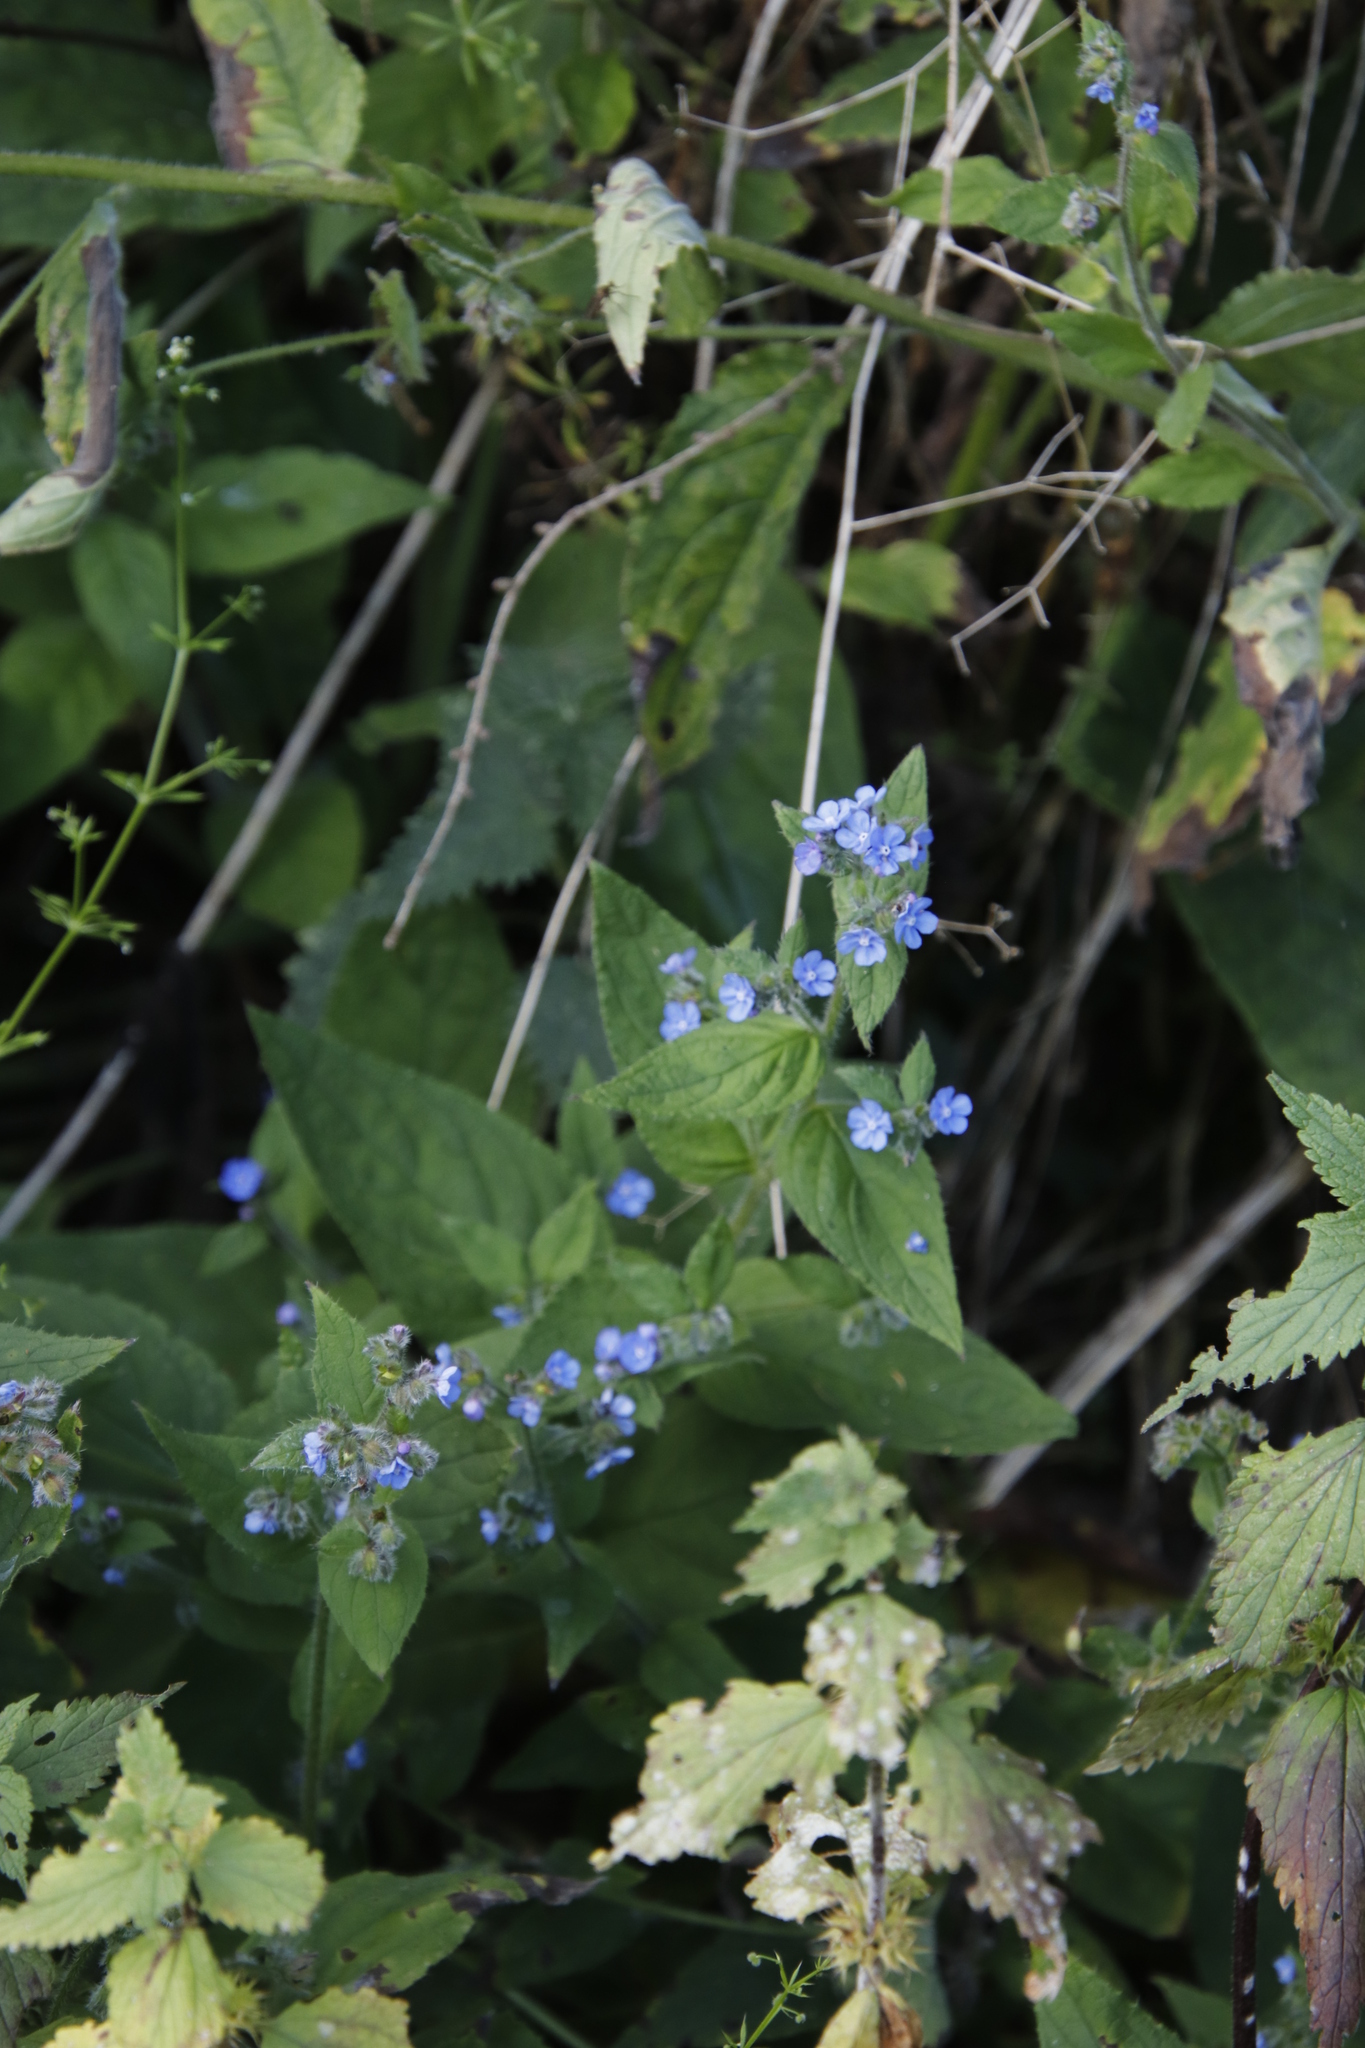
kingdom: Plantae
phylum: Tracheophyta
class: Magnoliopsida
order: Boraginales
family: Boraginaceae
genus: Pentaglottis
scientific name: Pentaglottis sempervirens
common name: Green alkanet
